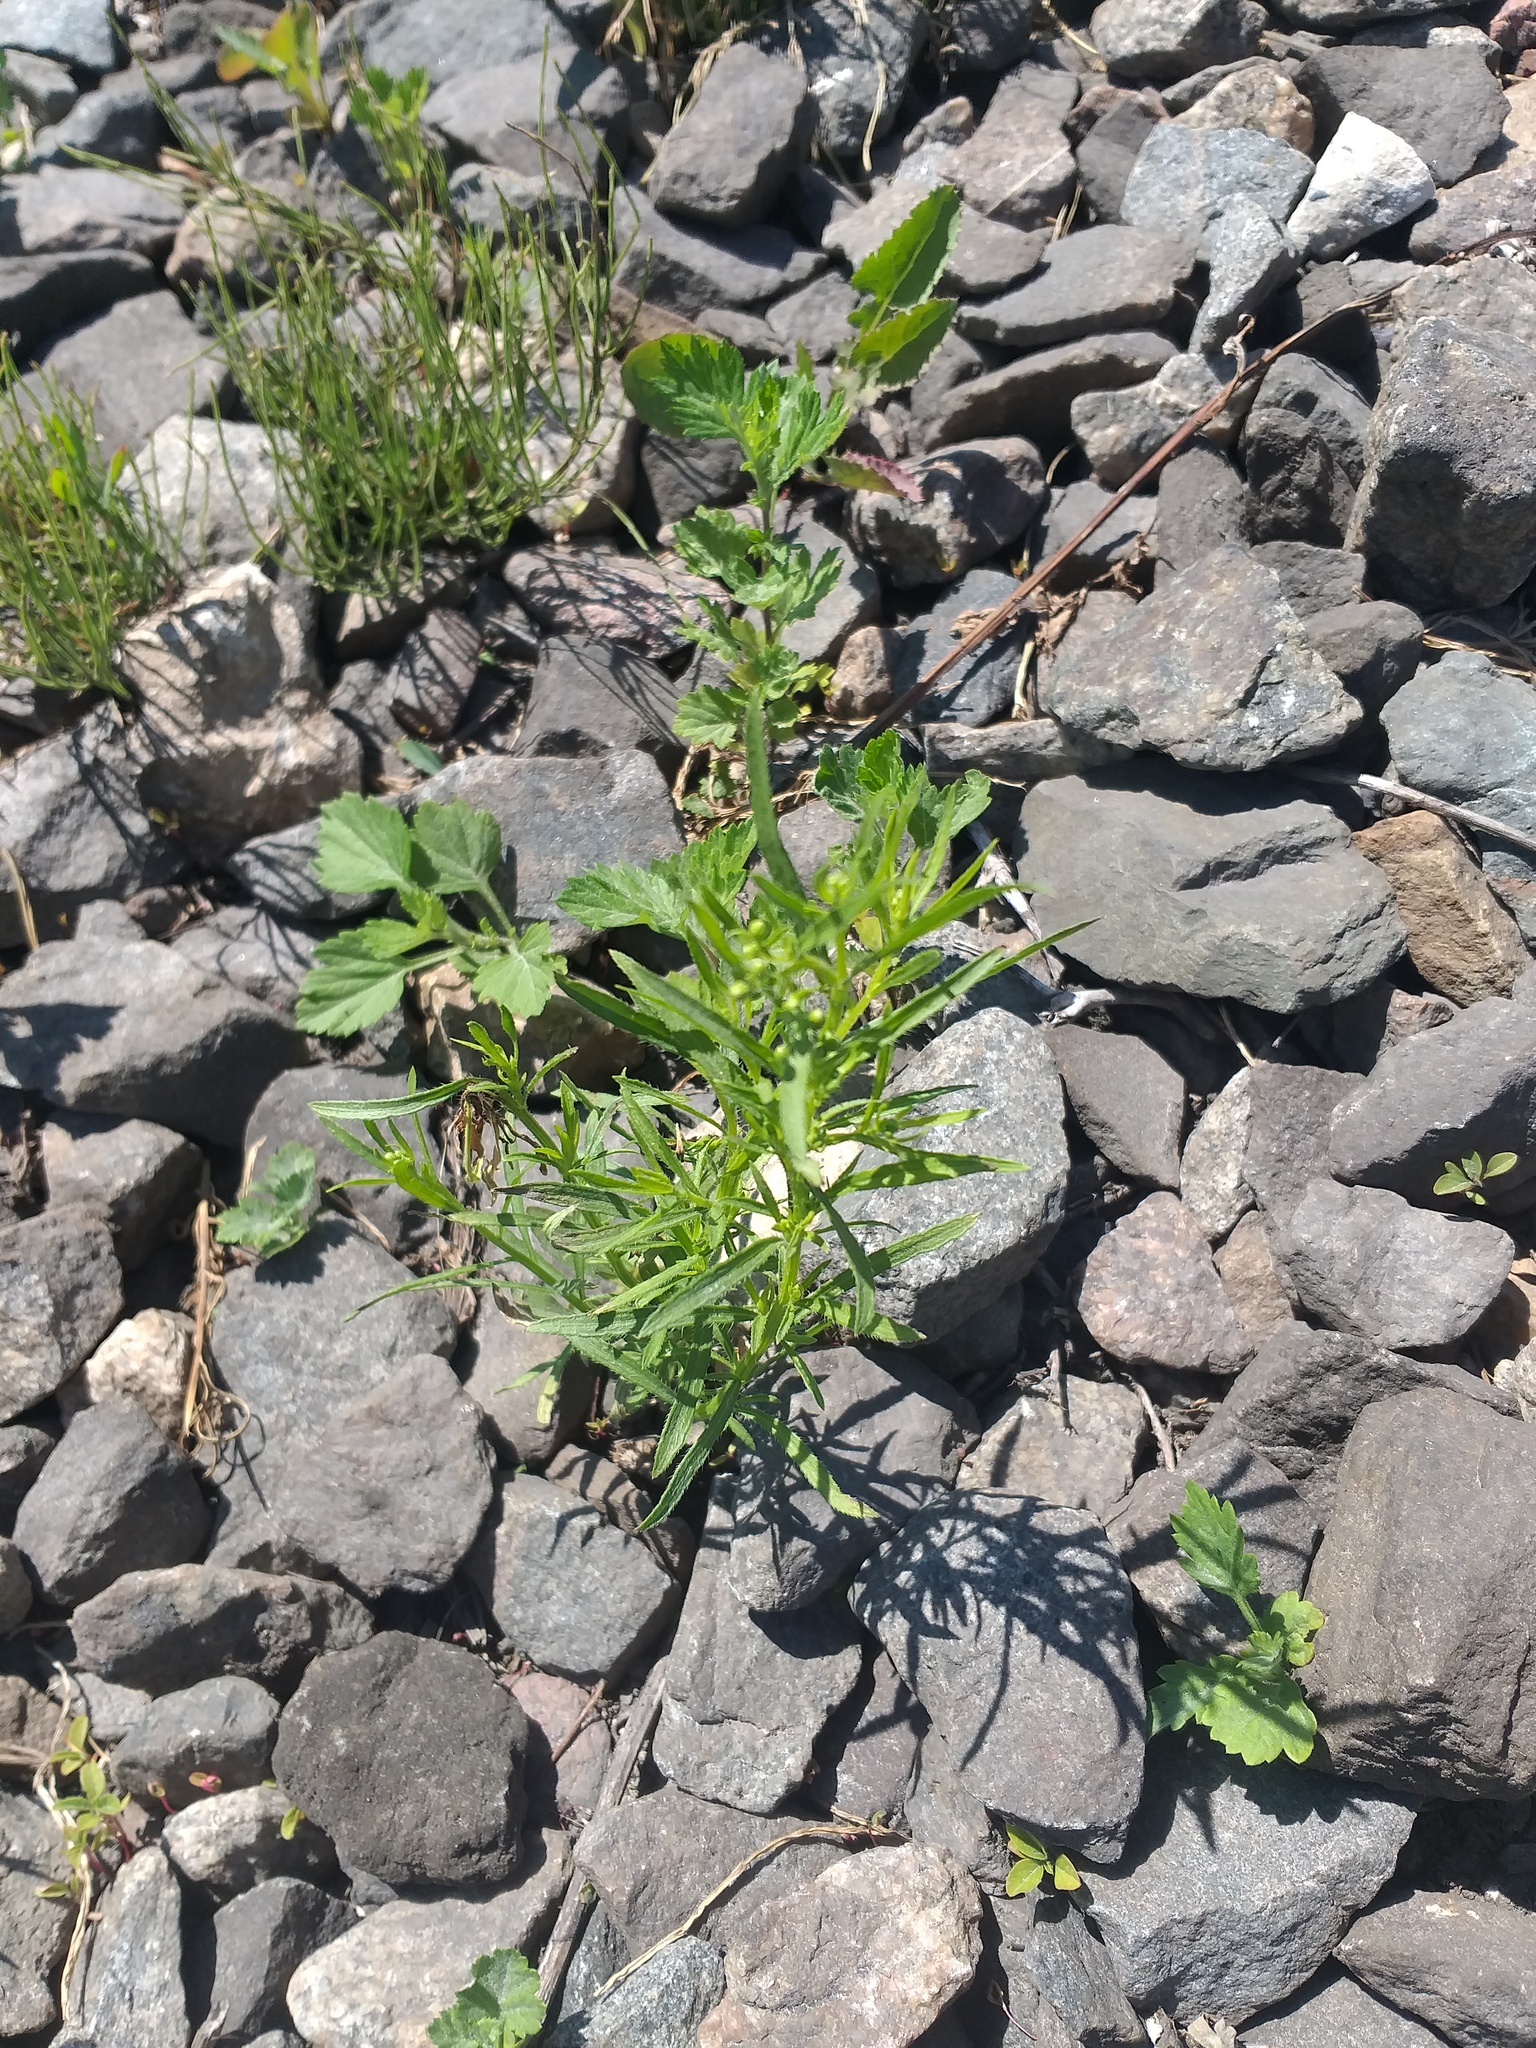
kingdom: Plantae
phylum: Tracheophyta
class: Magnoliopsida
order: Asterales
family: Asteraceae
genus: Erigeron
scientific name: Erigeron canadensis
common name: Canadian fleabane
